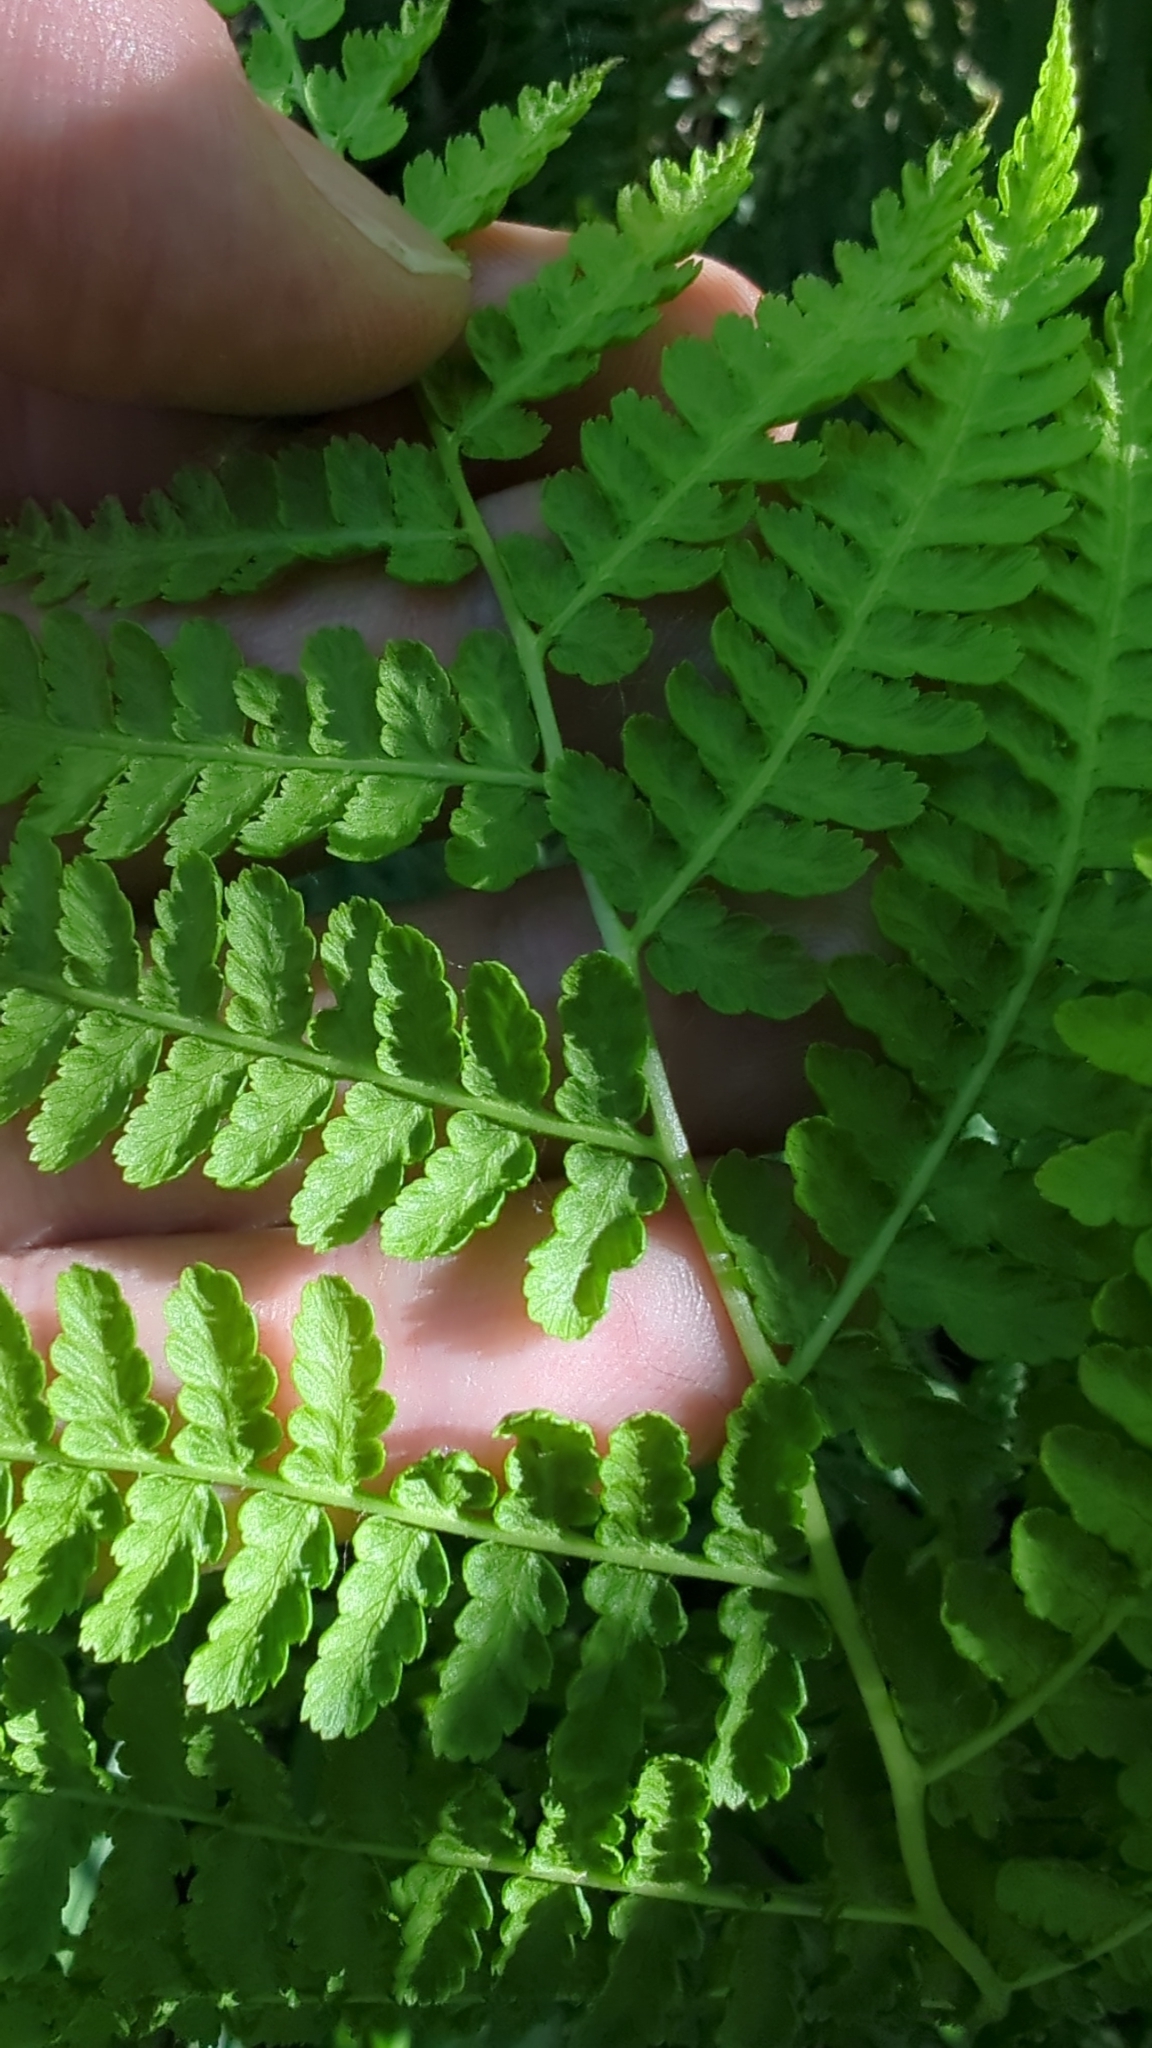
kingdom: Plantae
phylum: Tracheophyta
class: Polypodiopsida
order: Polypodiales
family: Athyriaceae
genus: Athyrium
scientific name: Athyrium filix-femina
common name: Lady fern
